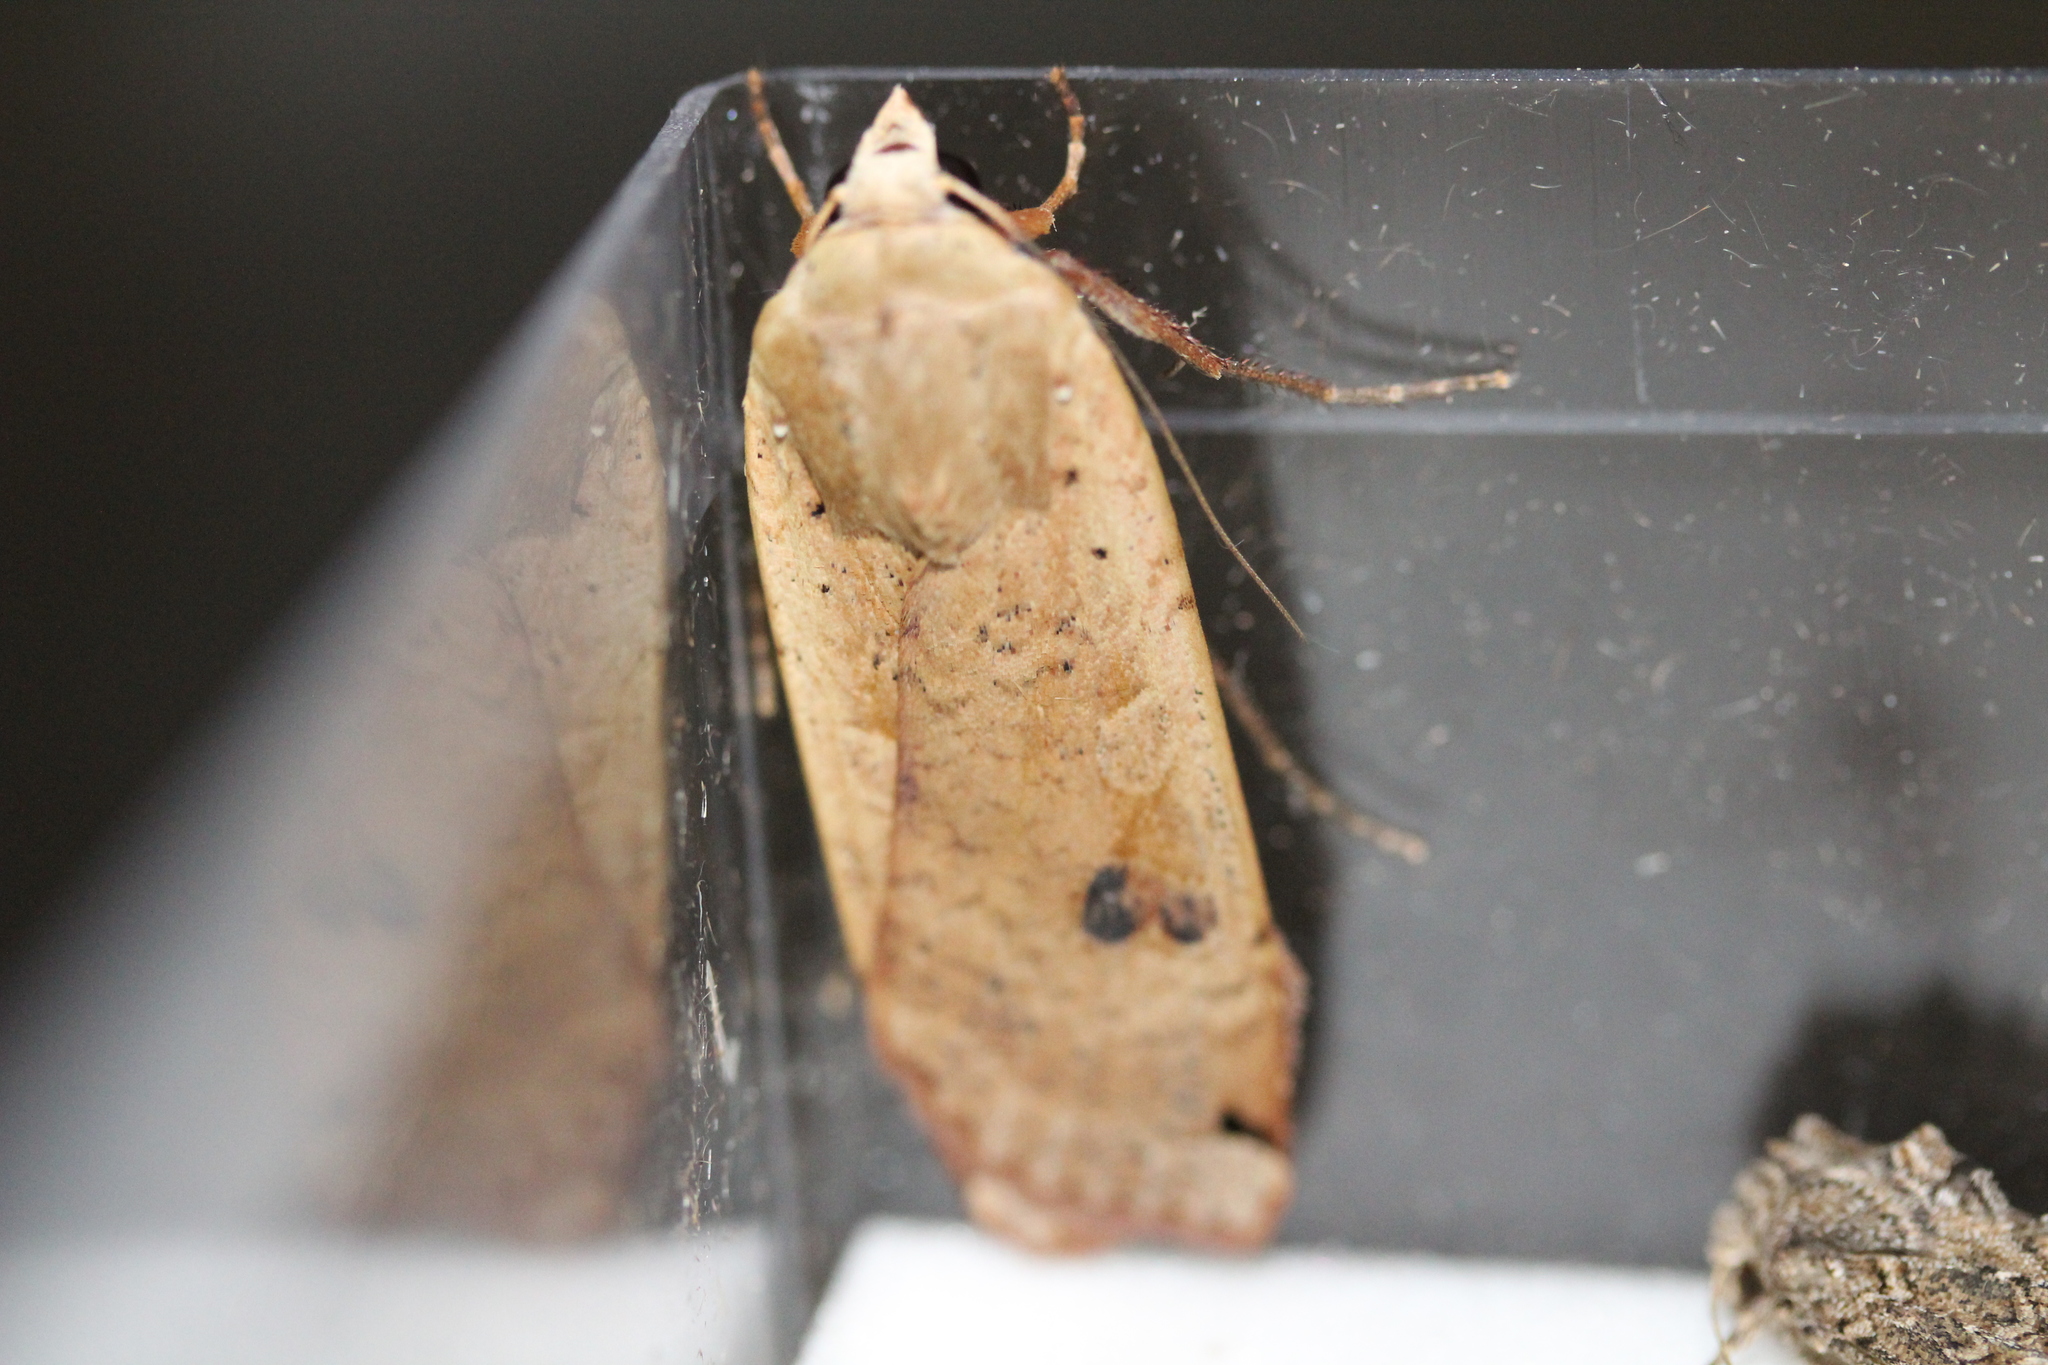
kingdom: Animalia
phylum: Arthropoda
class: Insecta
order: Lepidoptera
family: Noctuidae
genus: Noctua
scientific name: Noctua pronuba
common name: Large yellow underwing
